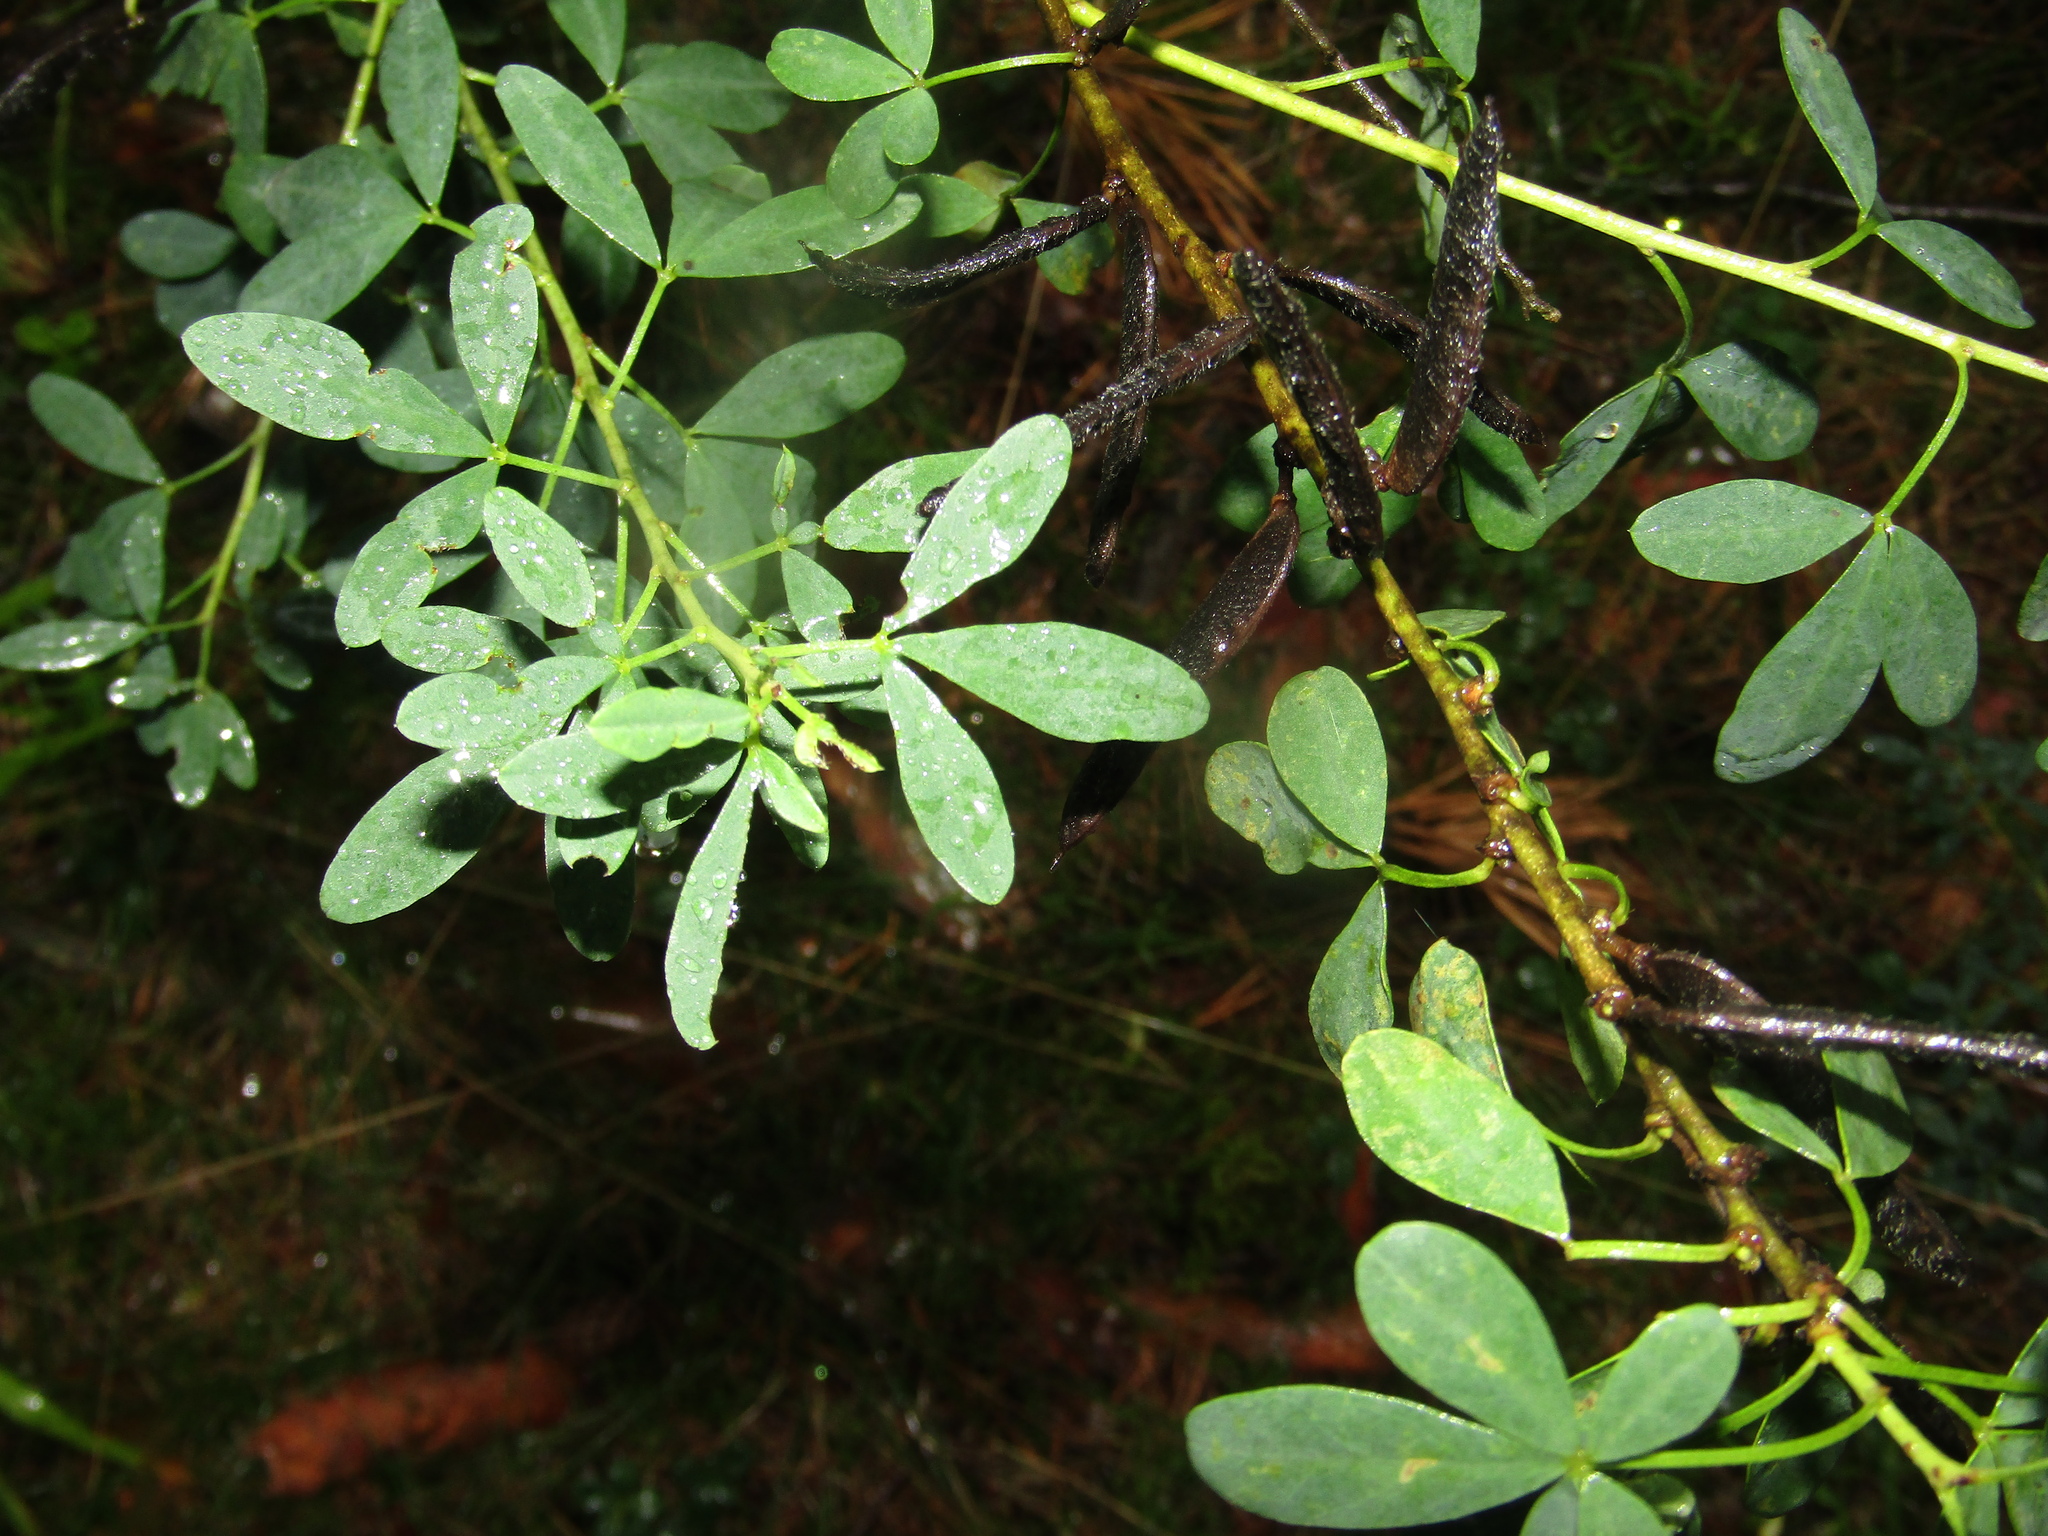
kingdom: Plantae
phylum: Tracheophyta
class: Magnoliopsida
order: Fabales
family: Fabaceae
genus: Chamaecytisus
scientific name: Chamaecytisus ruthenicus
